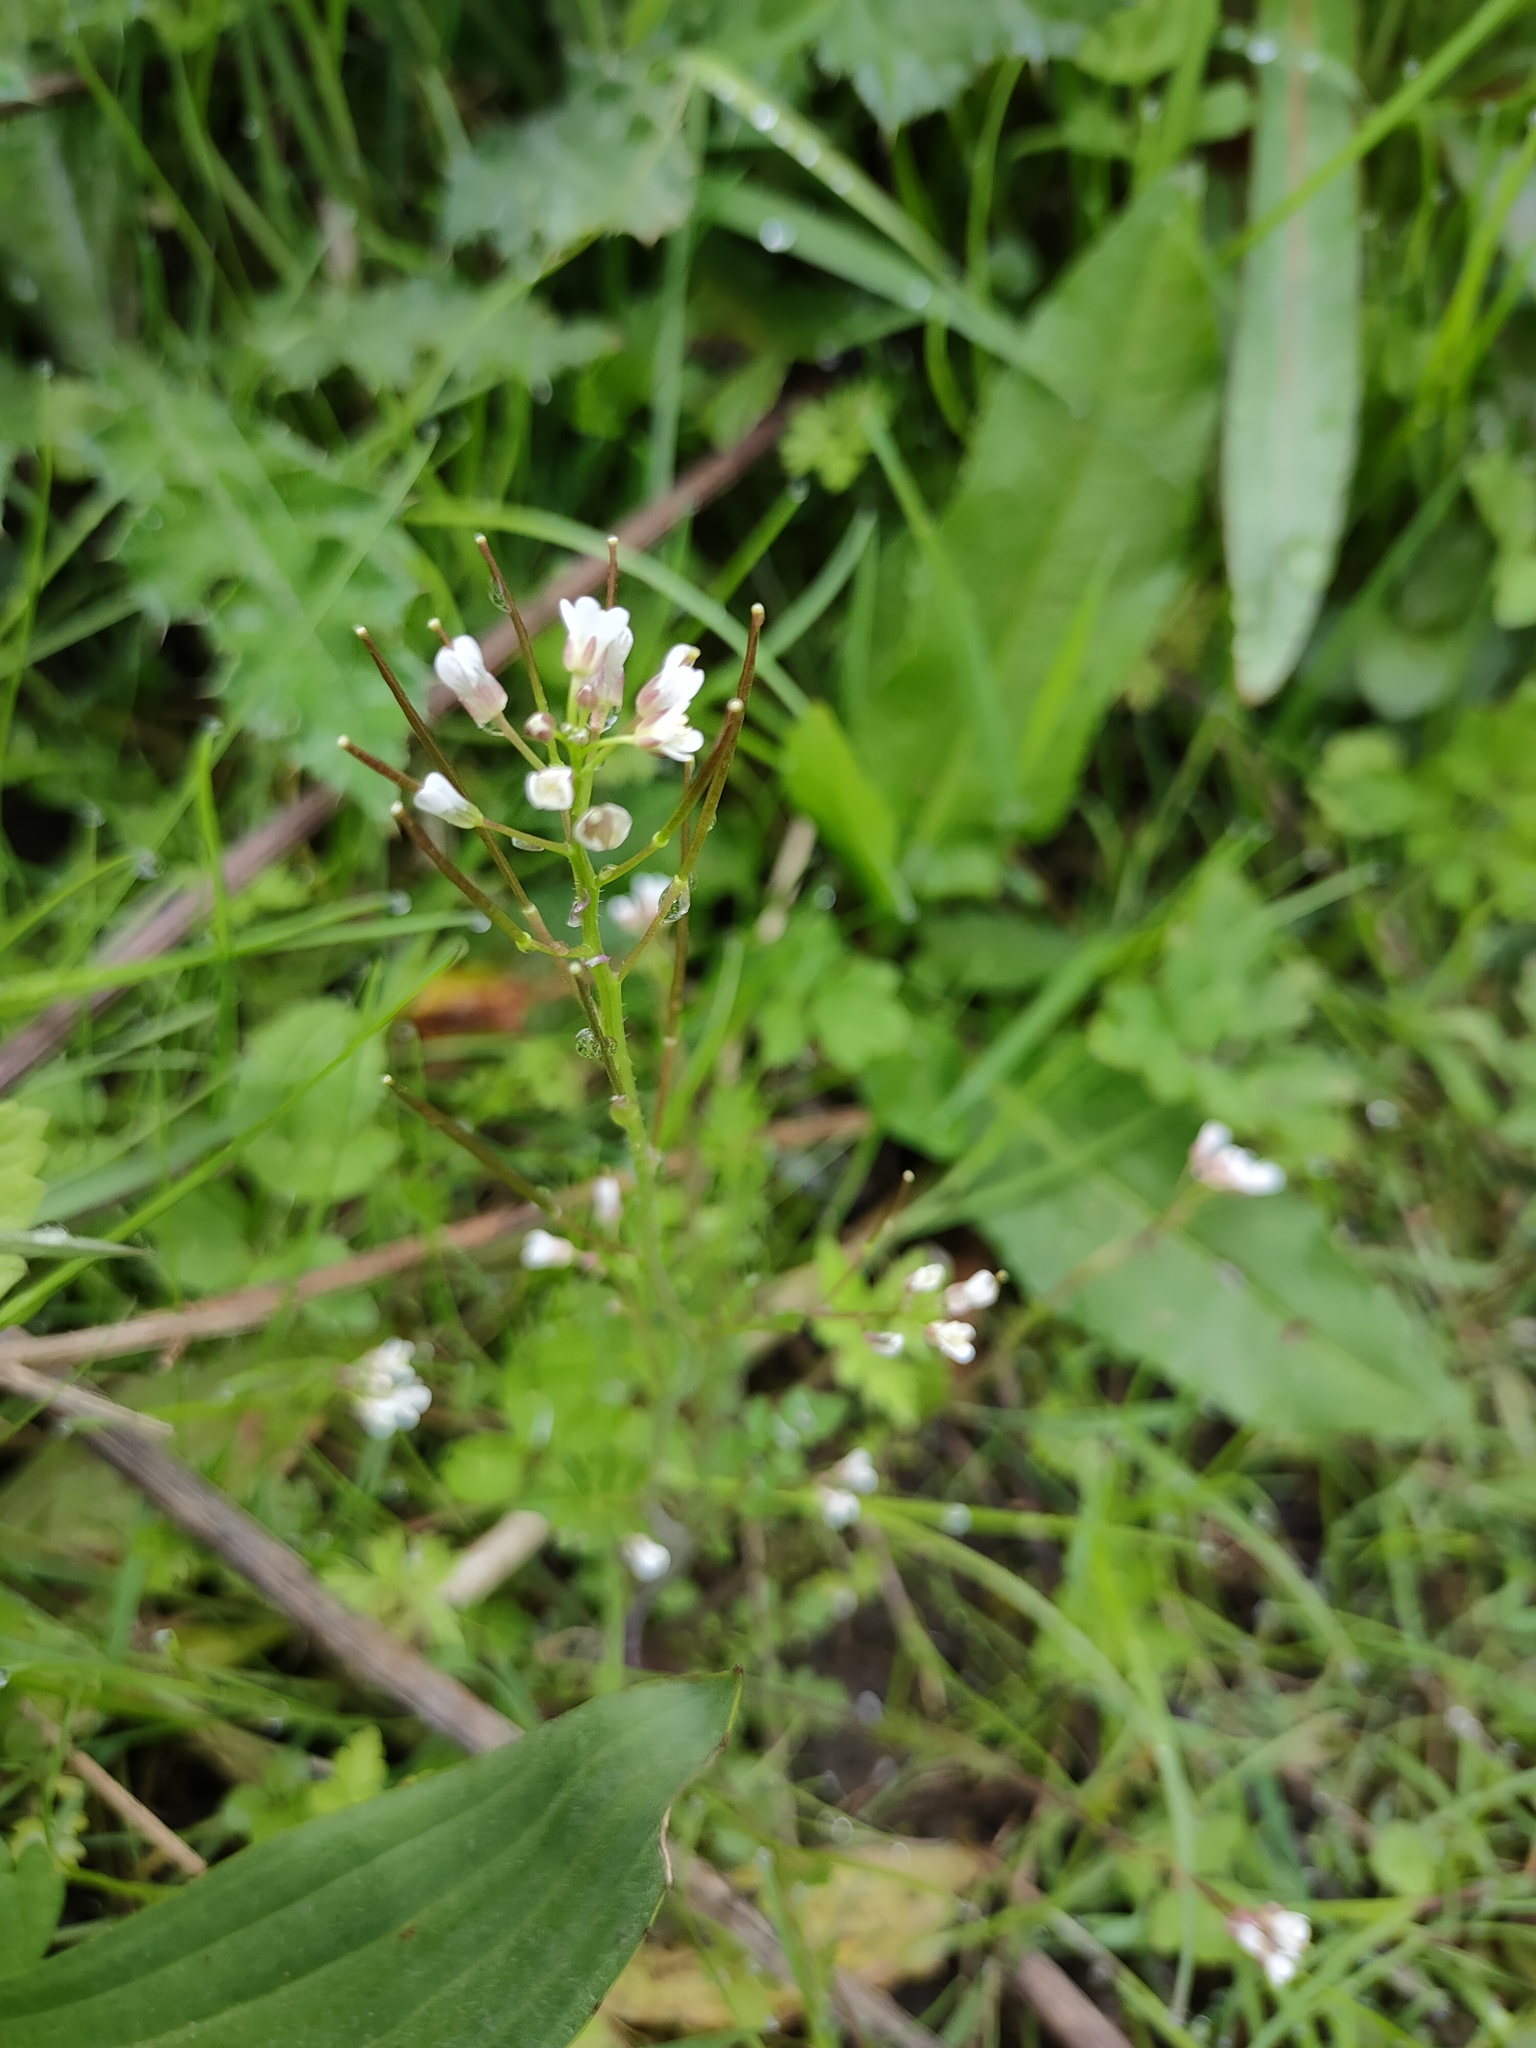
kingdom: Plantae
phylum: Tracheophyta
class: Magnoliopsida
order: Brassicales
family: Brassicaceae
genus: Cardamine
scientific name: Cardamine flexuosa
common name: Woodland bittercress
